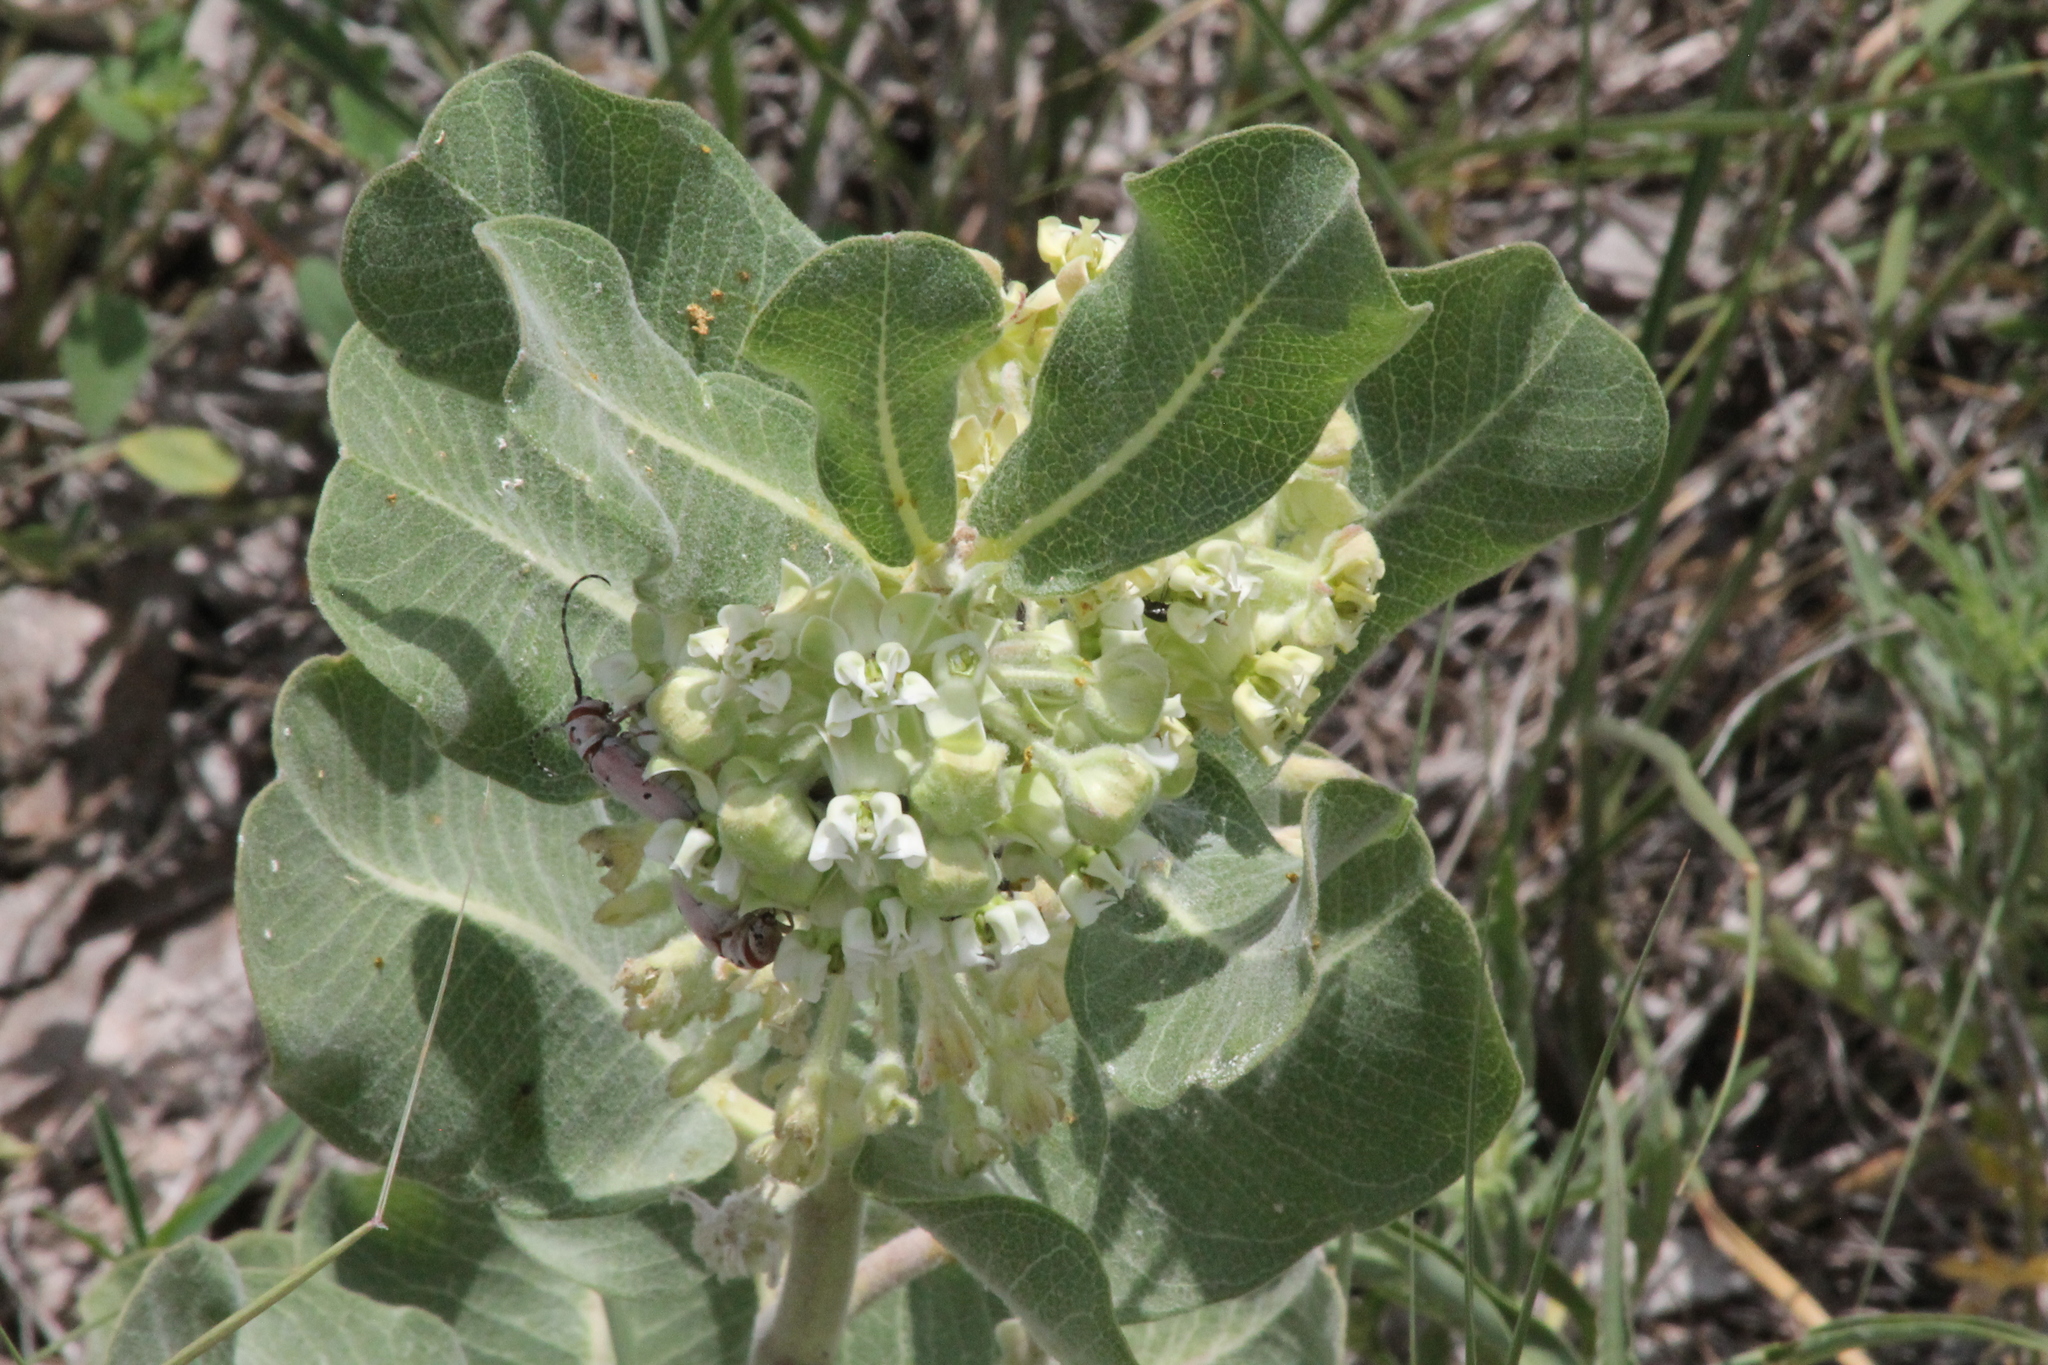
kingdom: Plantae
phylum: Tracheophyta
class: Magnoliopsida
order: Gentianales
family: Apocynaceae
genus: Asclepias
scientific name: Asclepias arenaria
